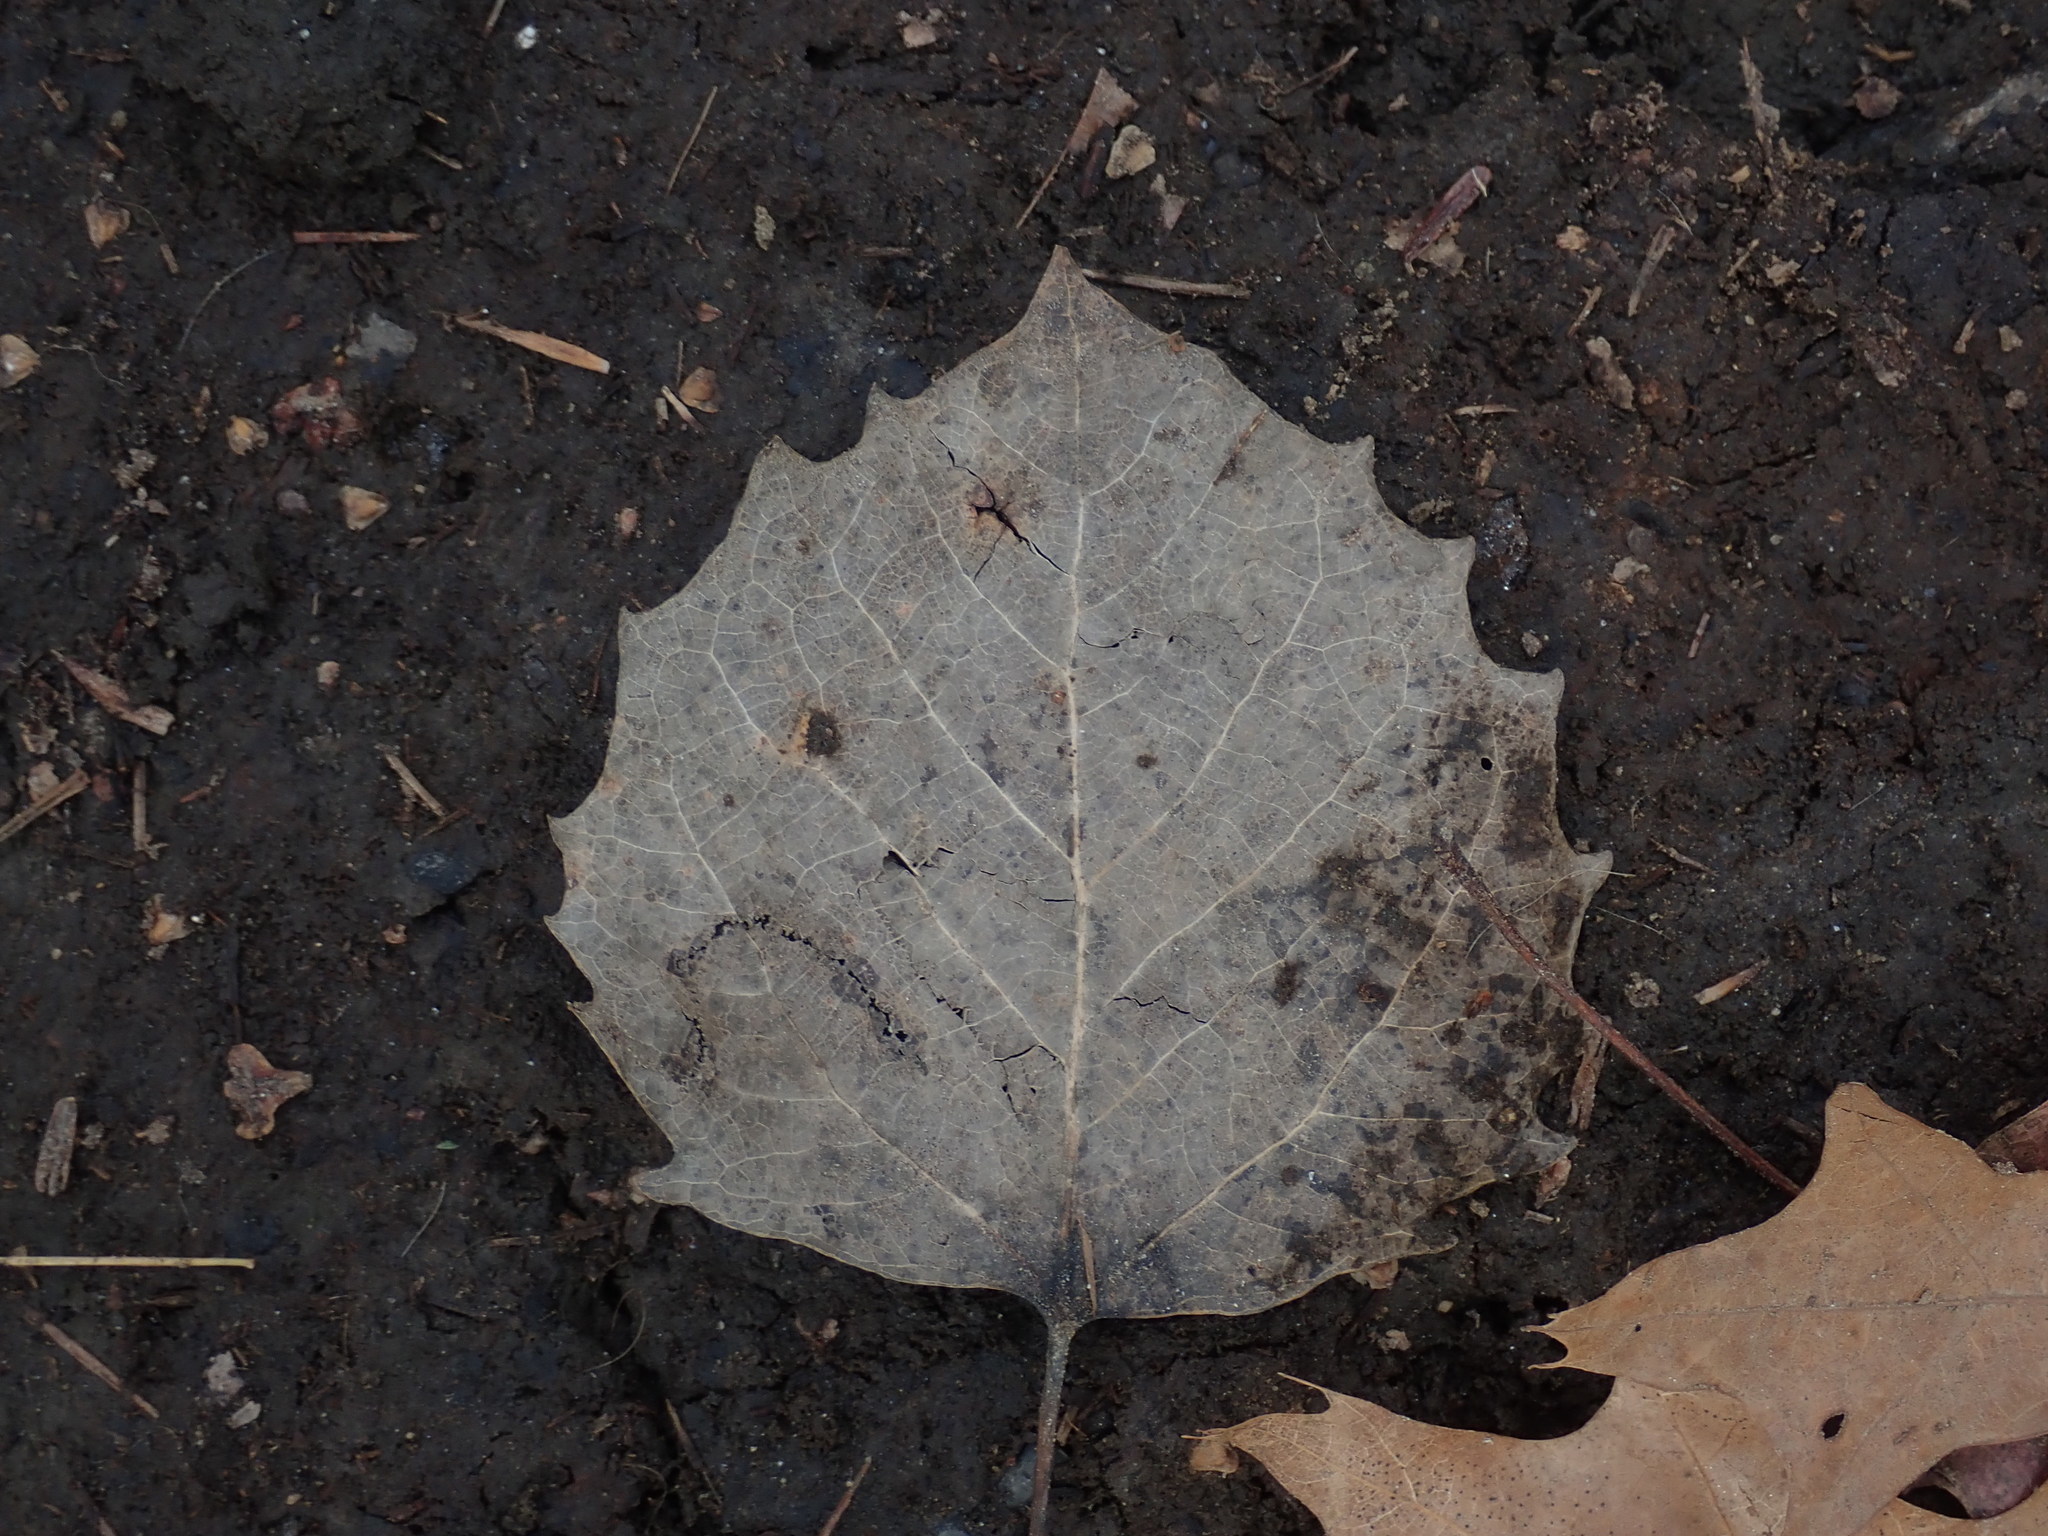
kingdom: Plantae
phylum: Tracheophyta
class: Magnoliopsida
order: Malpighiales
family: Salicaceae
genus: Populus
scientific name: Populus grandidentata
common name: Bigtooth aspen
